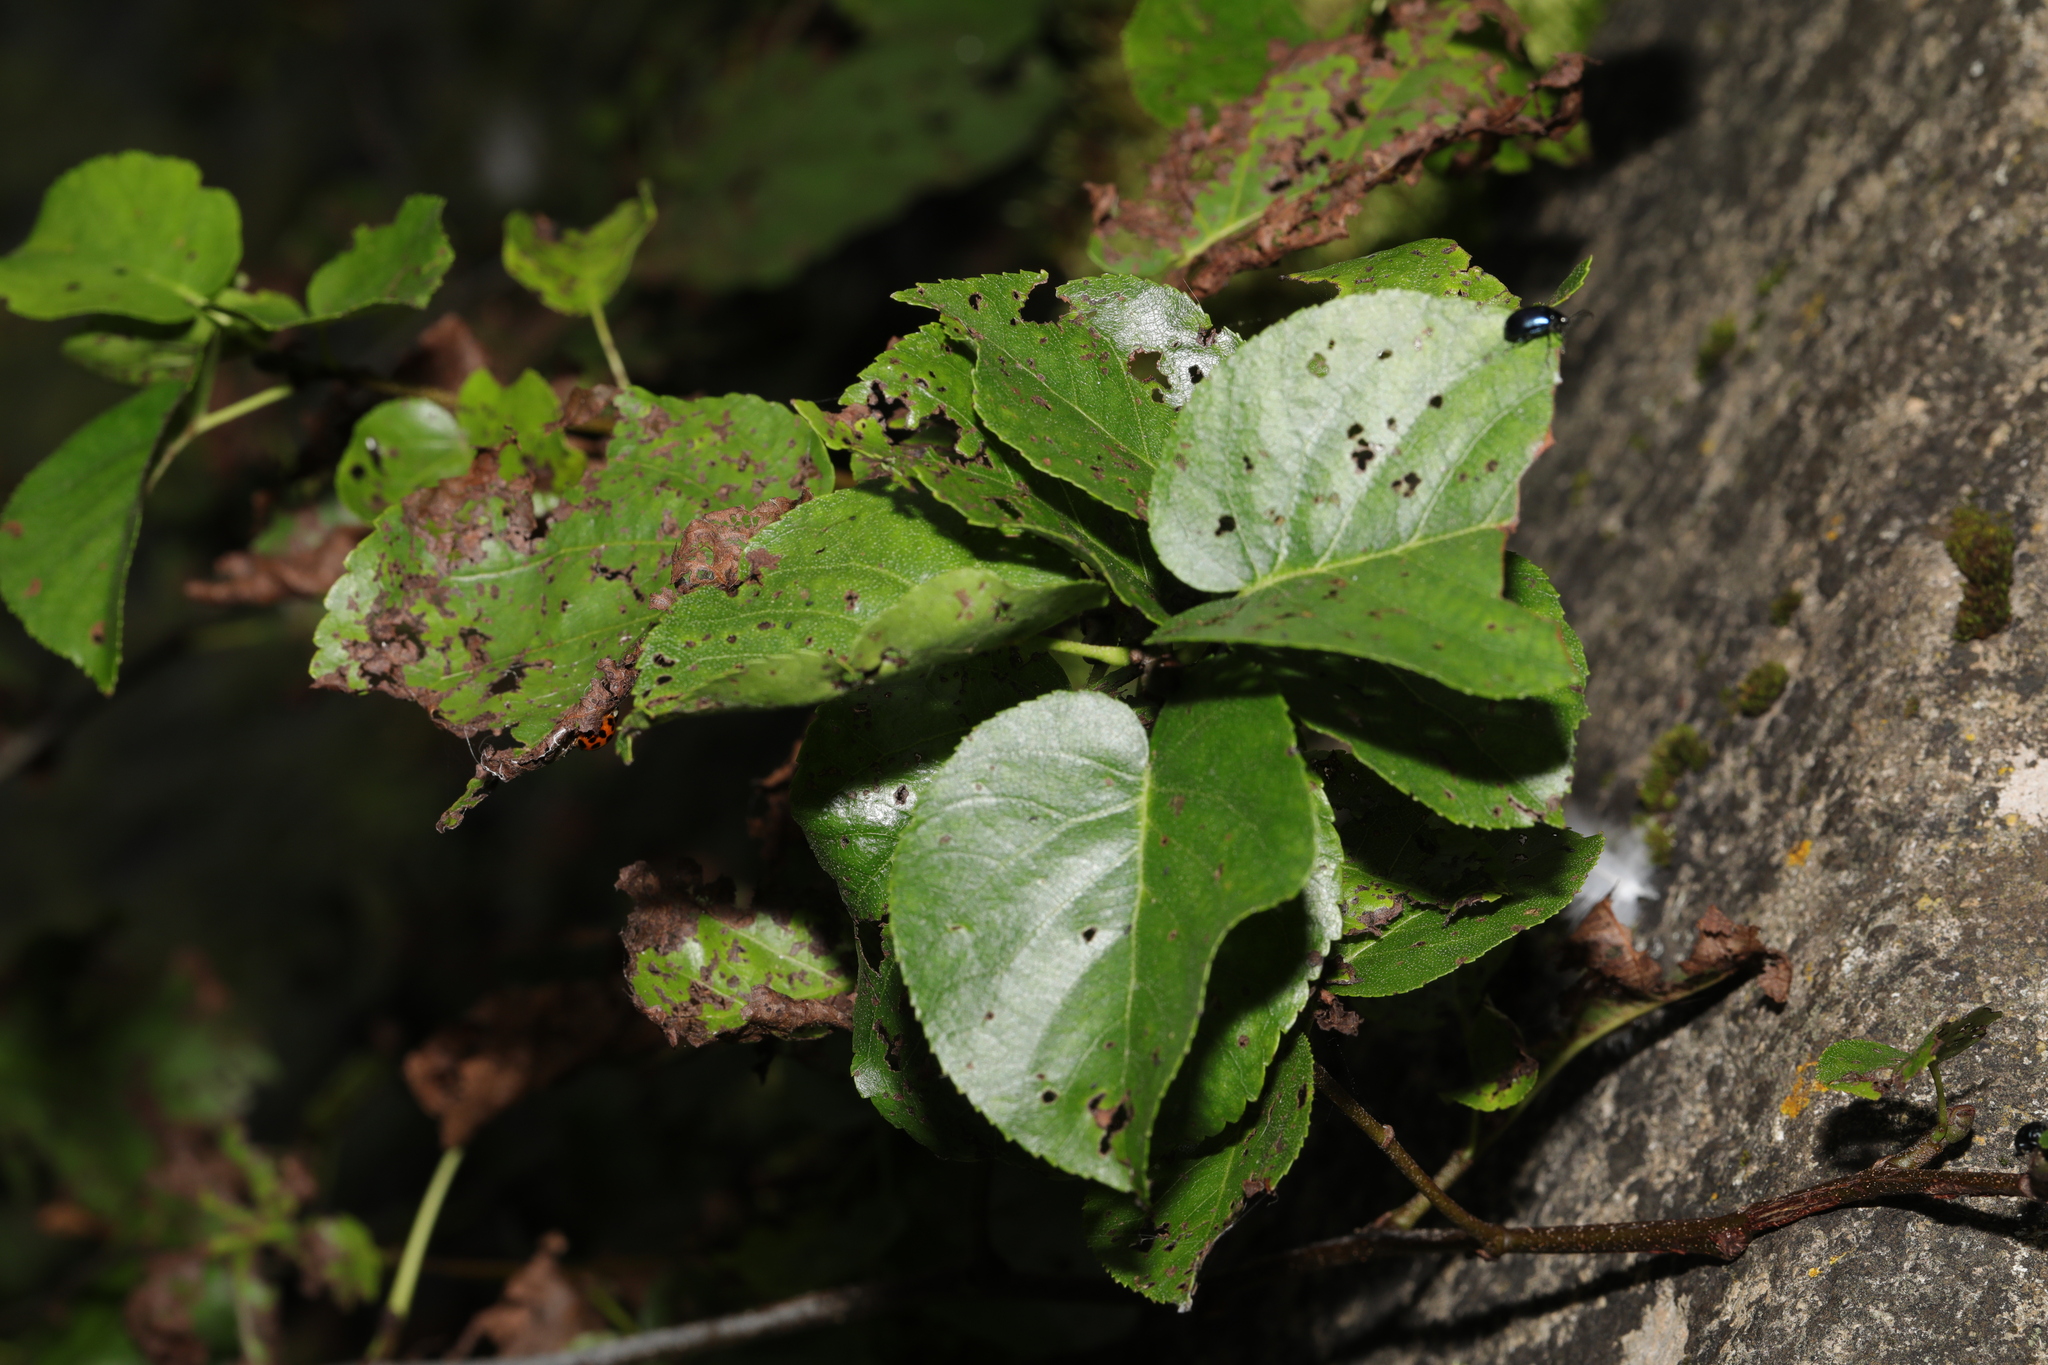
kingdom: Plantae
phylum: Tracheophyta
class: Magnoliopsida
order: Fagales
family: Betulaceae
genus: Alnus
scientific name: Alnus cordata
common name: Italian alder
